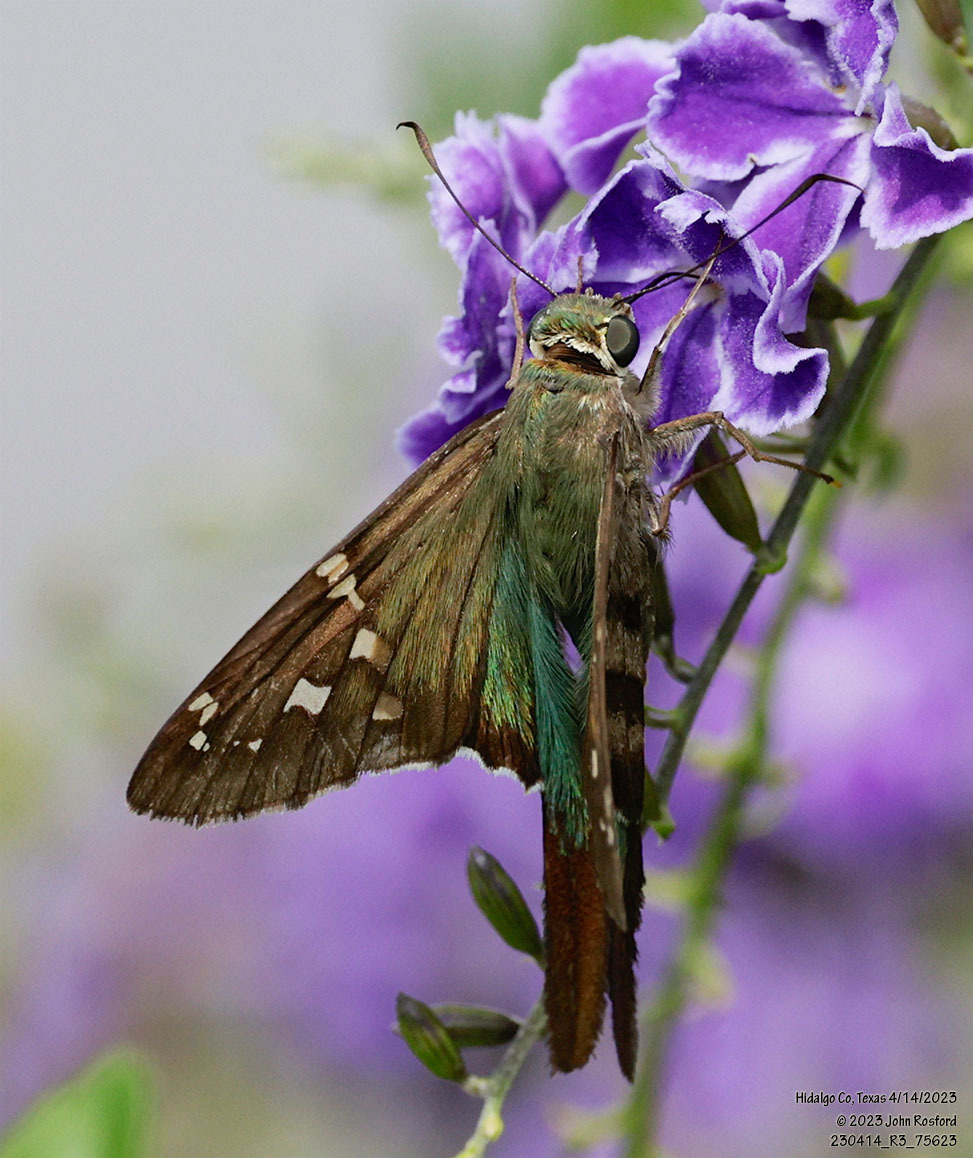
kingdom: Animalia
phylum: Arthropoda
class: Insecta
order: Lepidoptera
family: Hesperiidae
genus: Urbanus
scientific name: Urbanus proteus
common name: Long-tailed skipper
